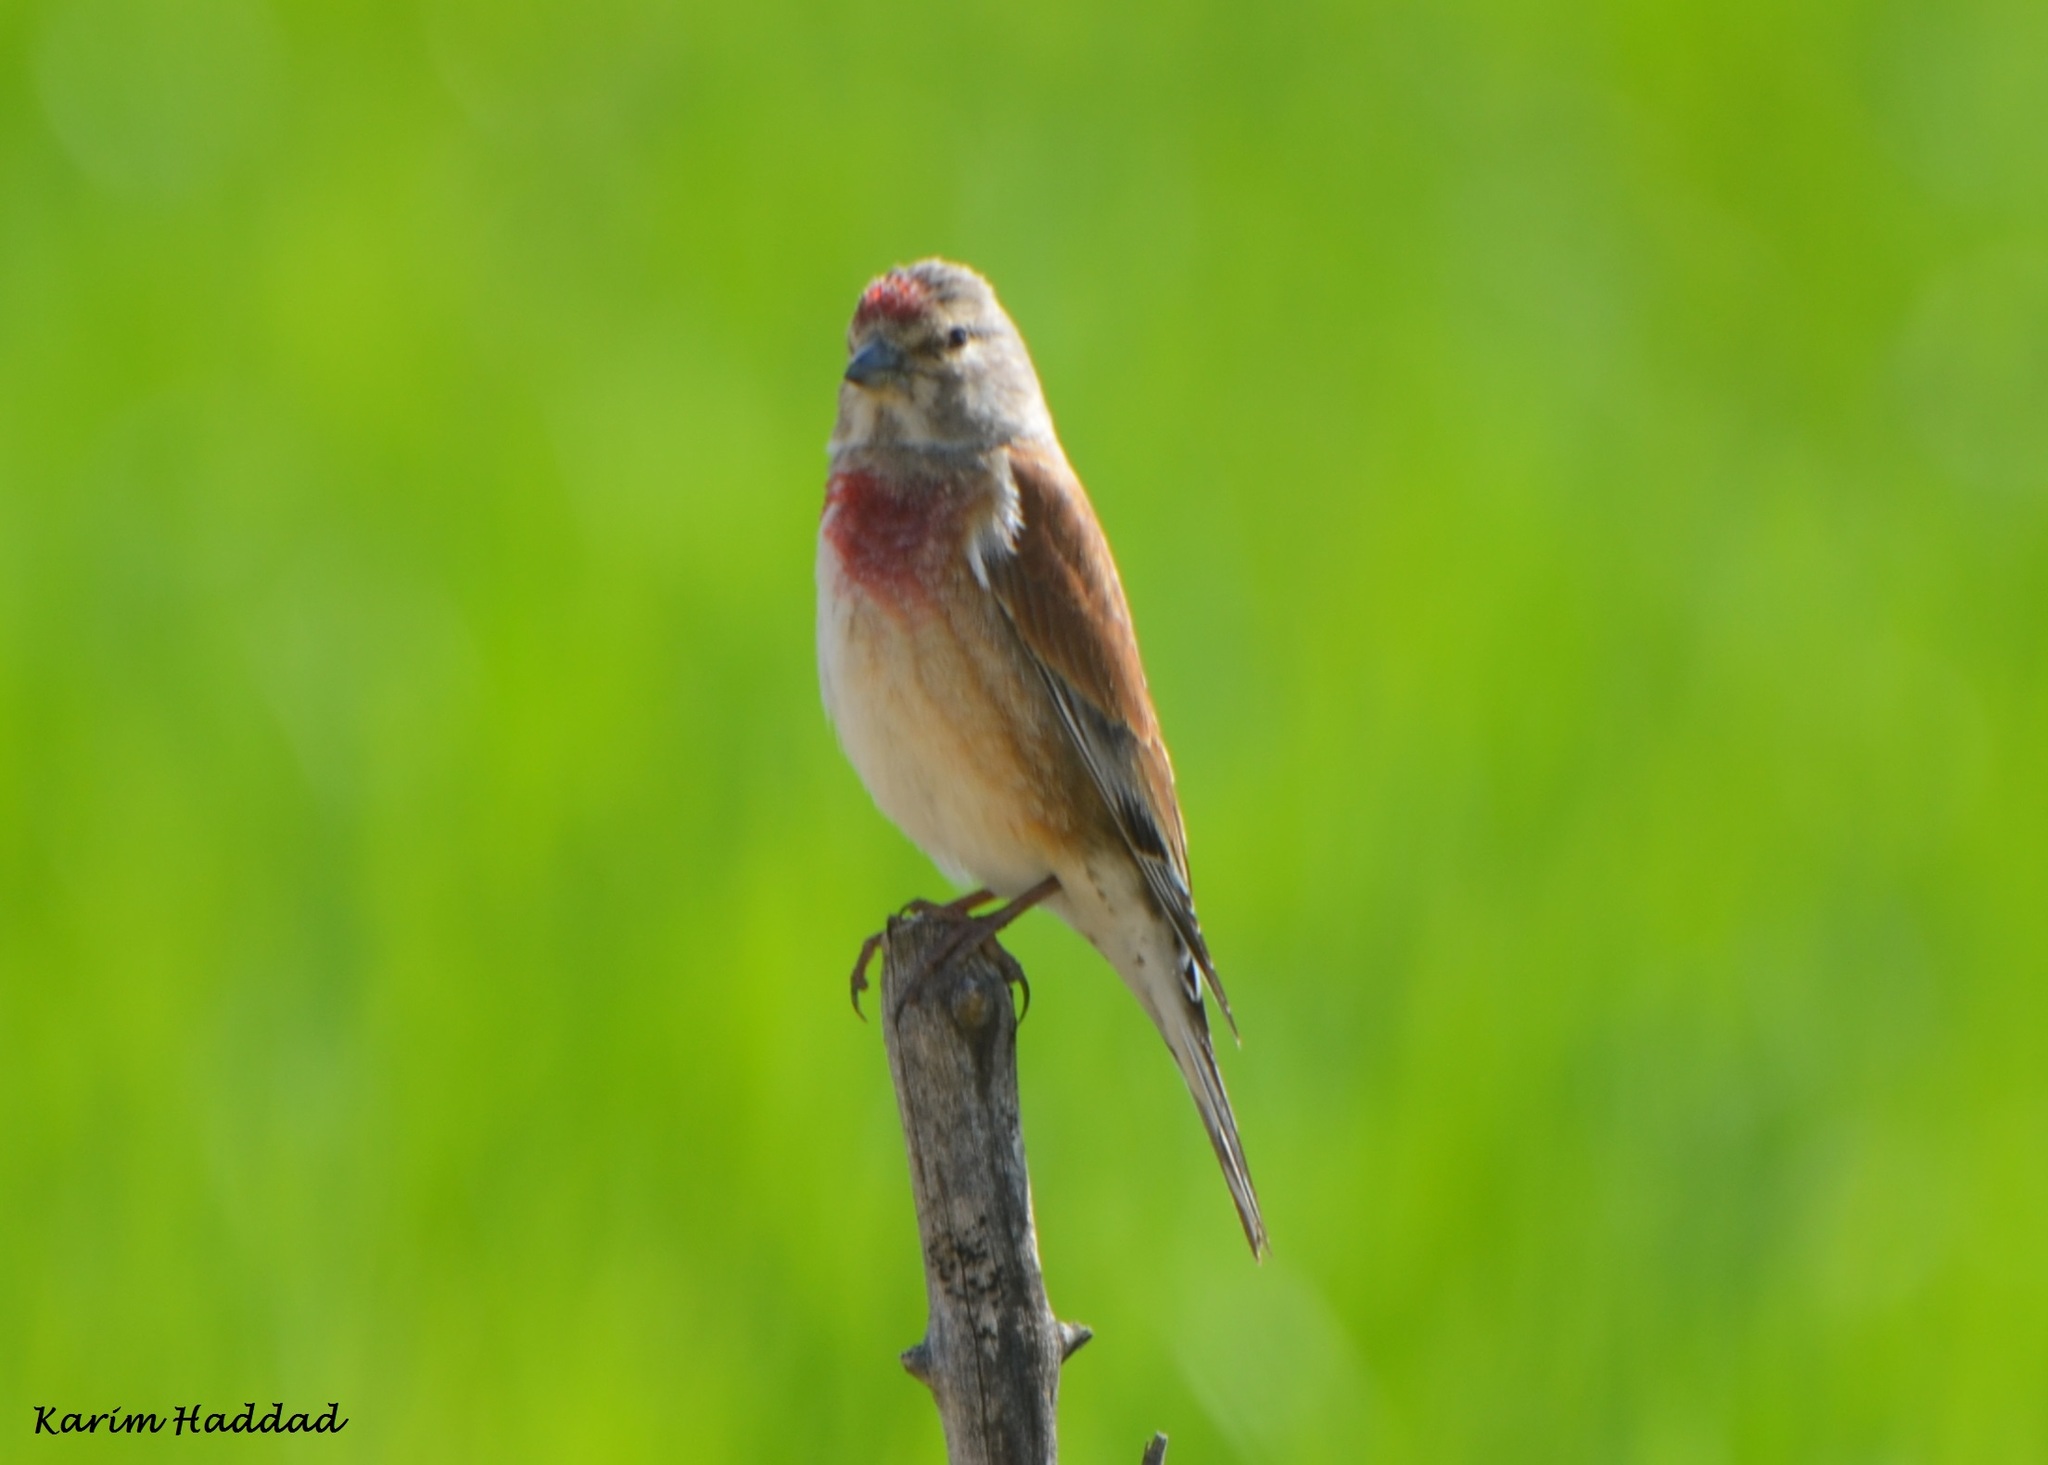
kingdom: Animalia
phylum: Chordata
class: Aves
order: Passeriformes
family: Fringillidae
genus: Linaria
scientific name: Linaria cannabina
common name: Common linnet
